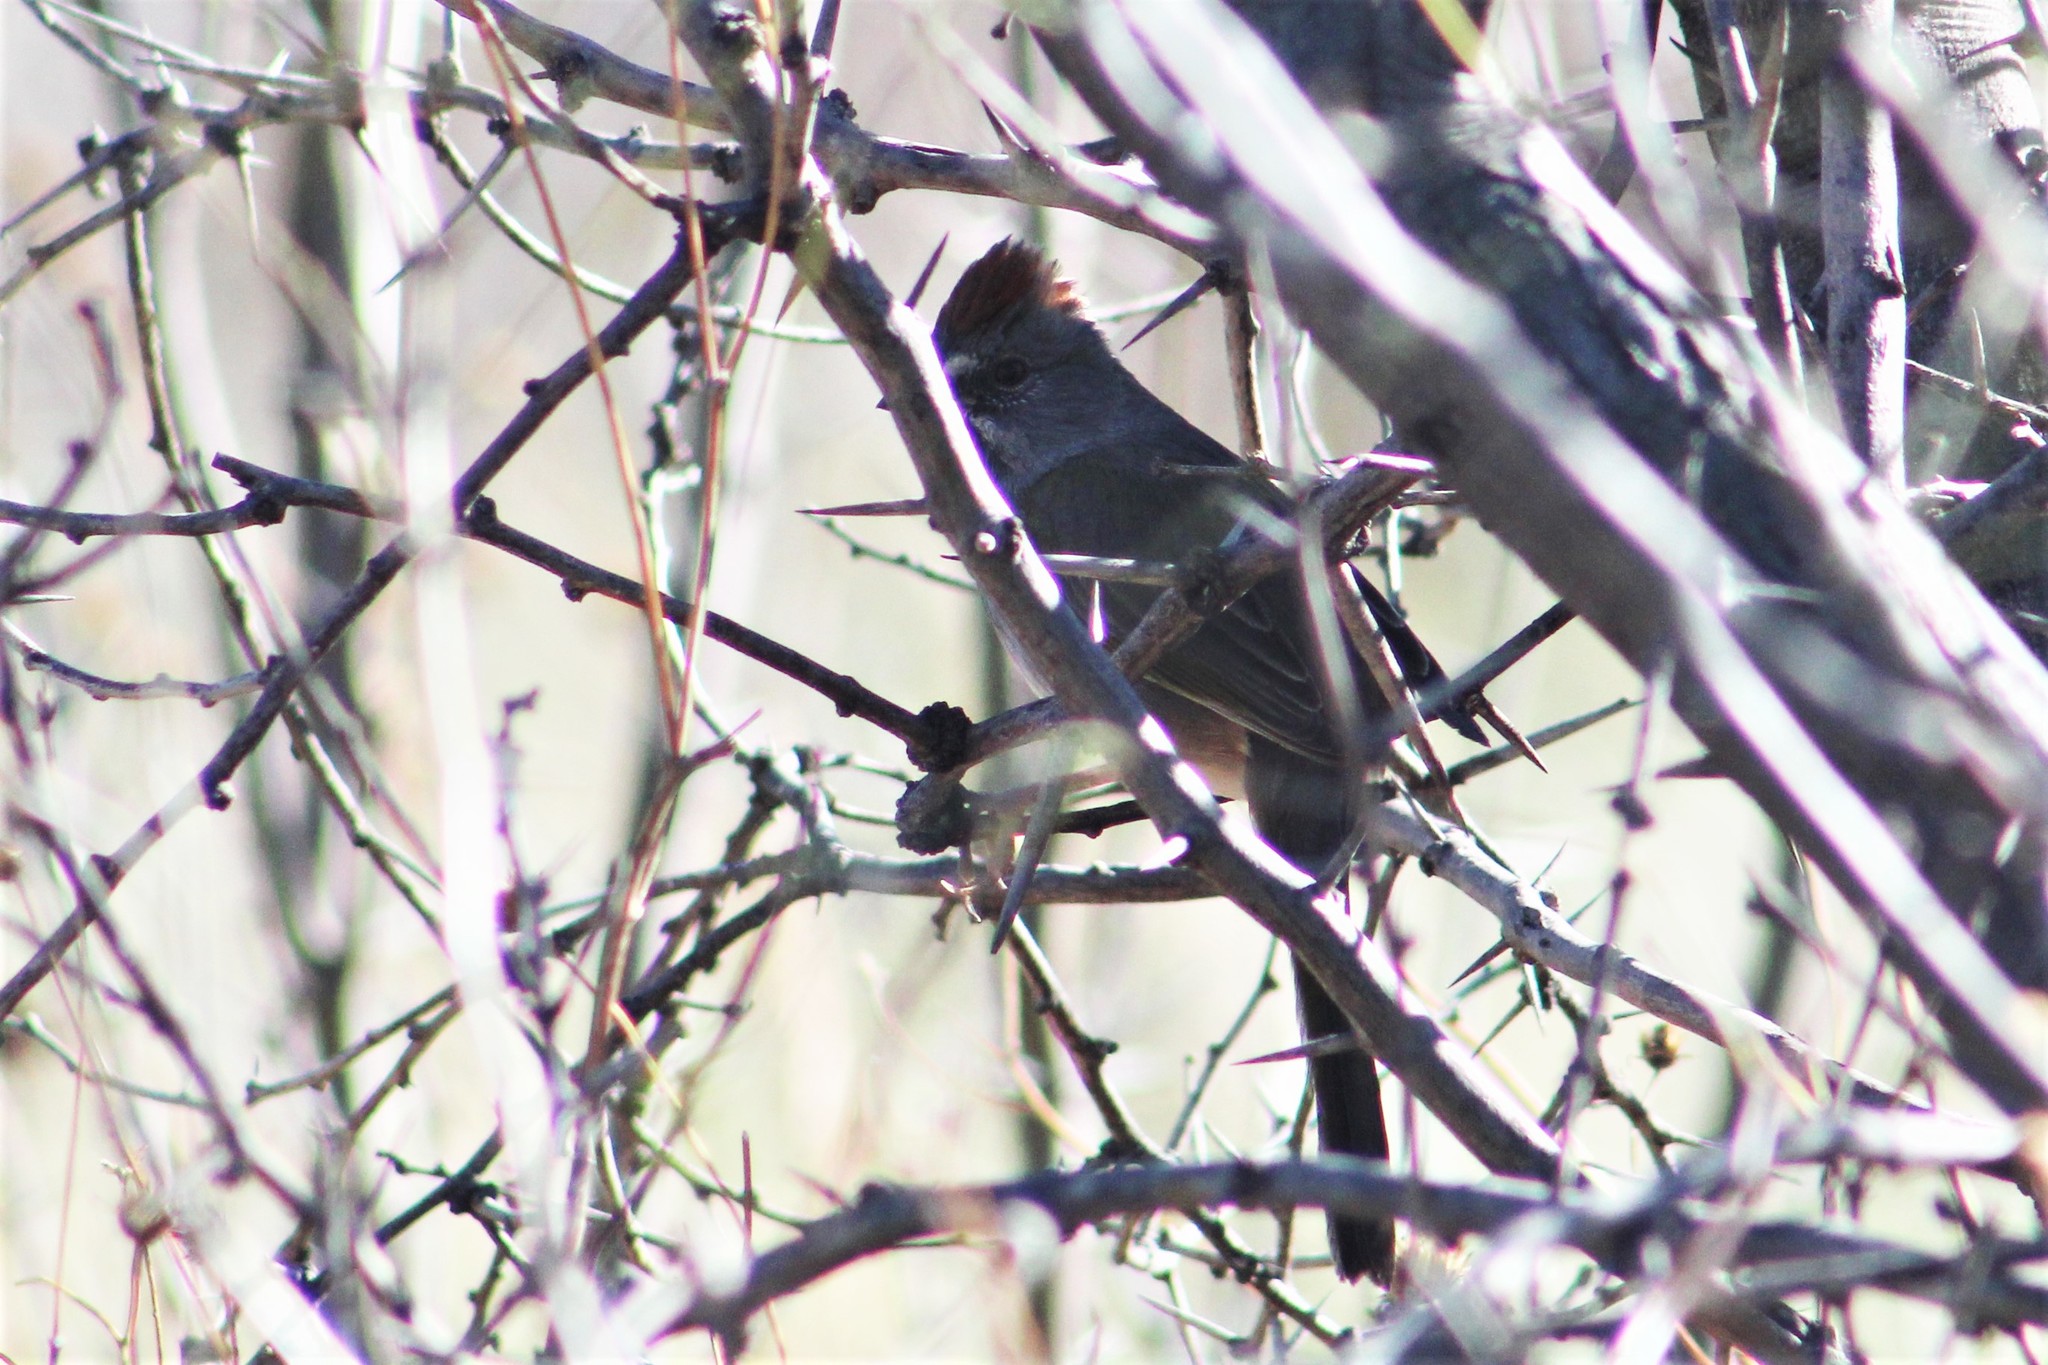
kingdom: Animalia
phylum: Chordata
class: Aves
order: Passeriformes
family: Passerellidae
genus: Pipilo
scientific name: Pipilo chlorurus
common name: Green-tailed towhee
